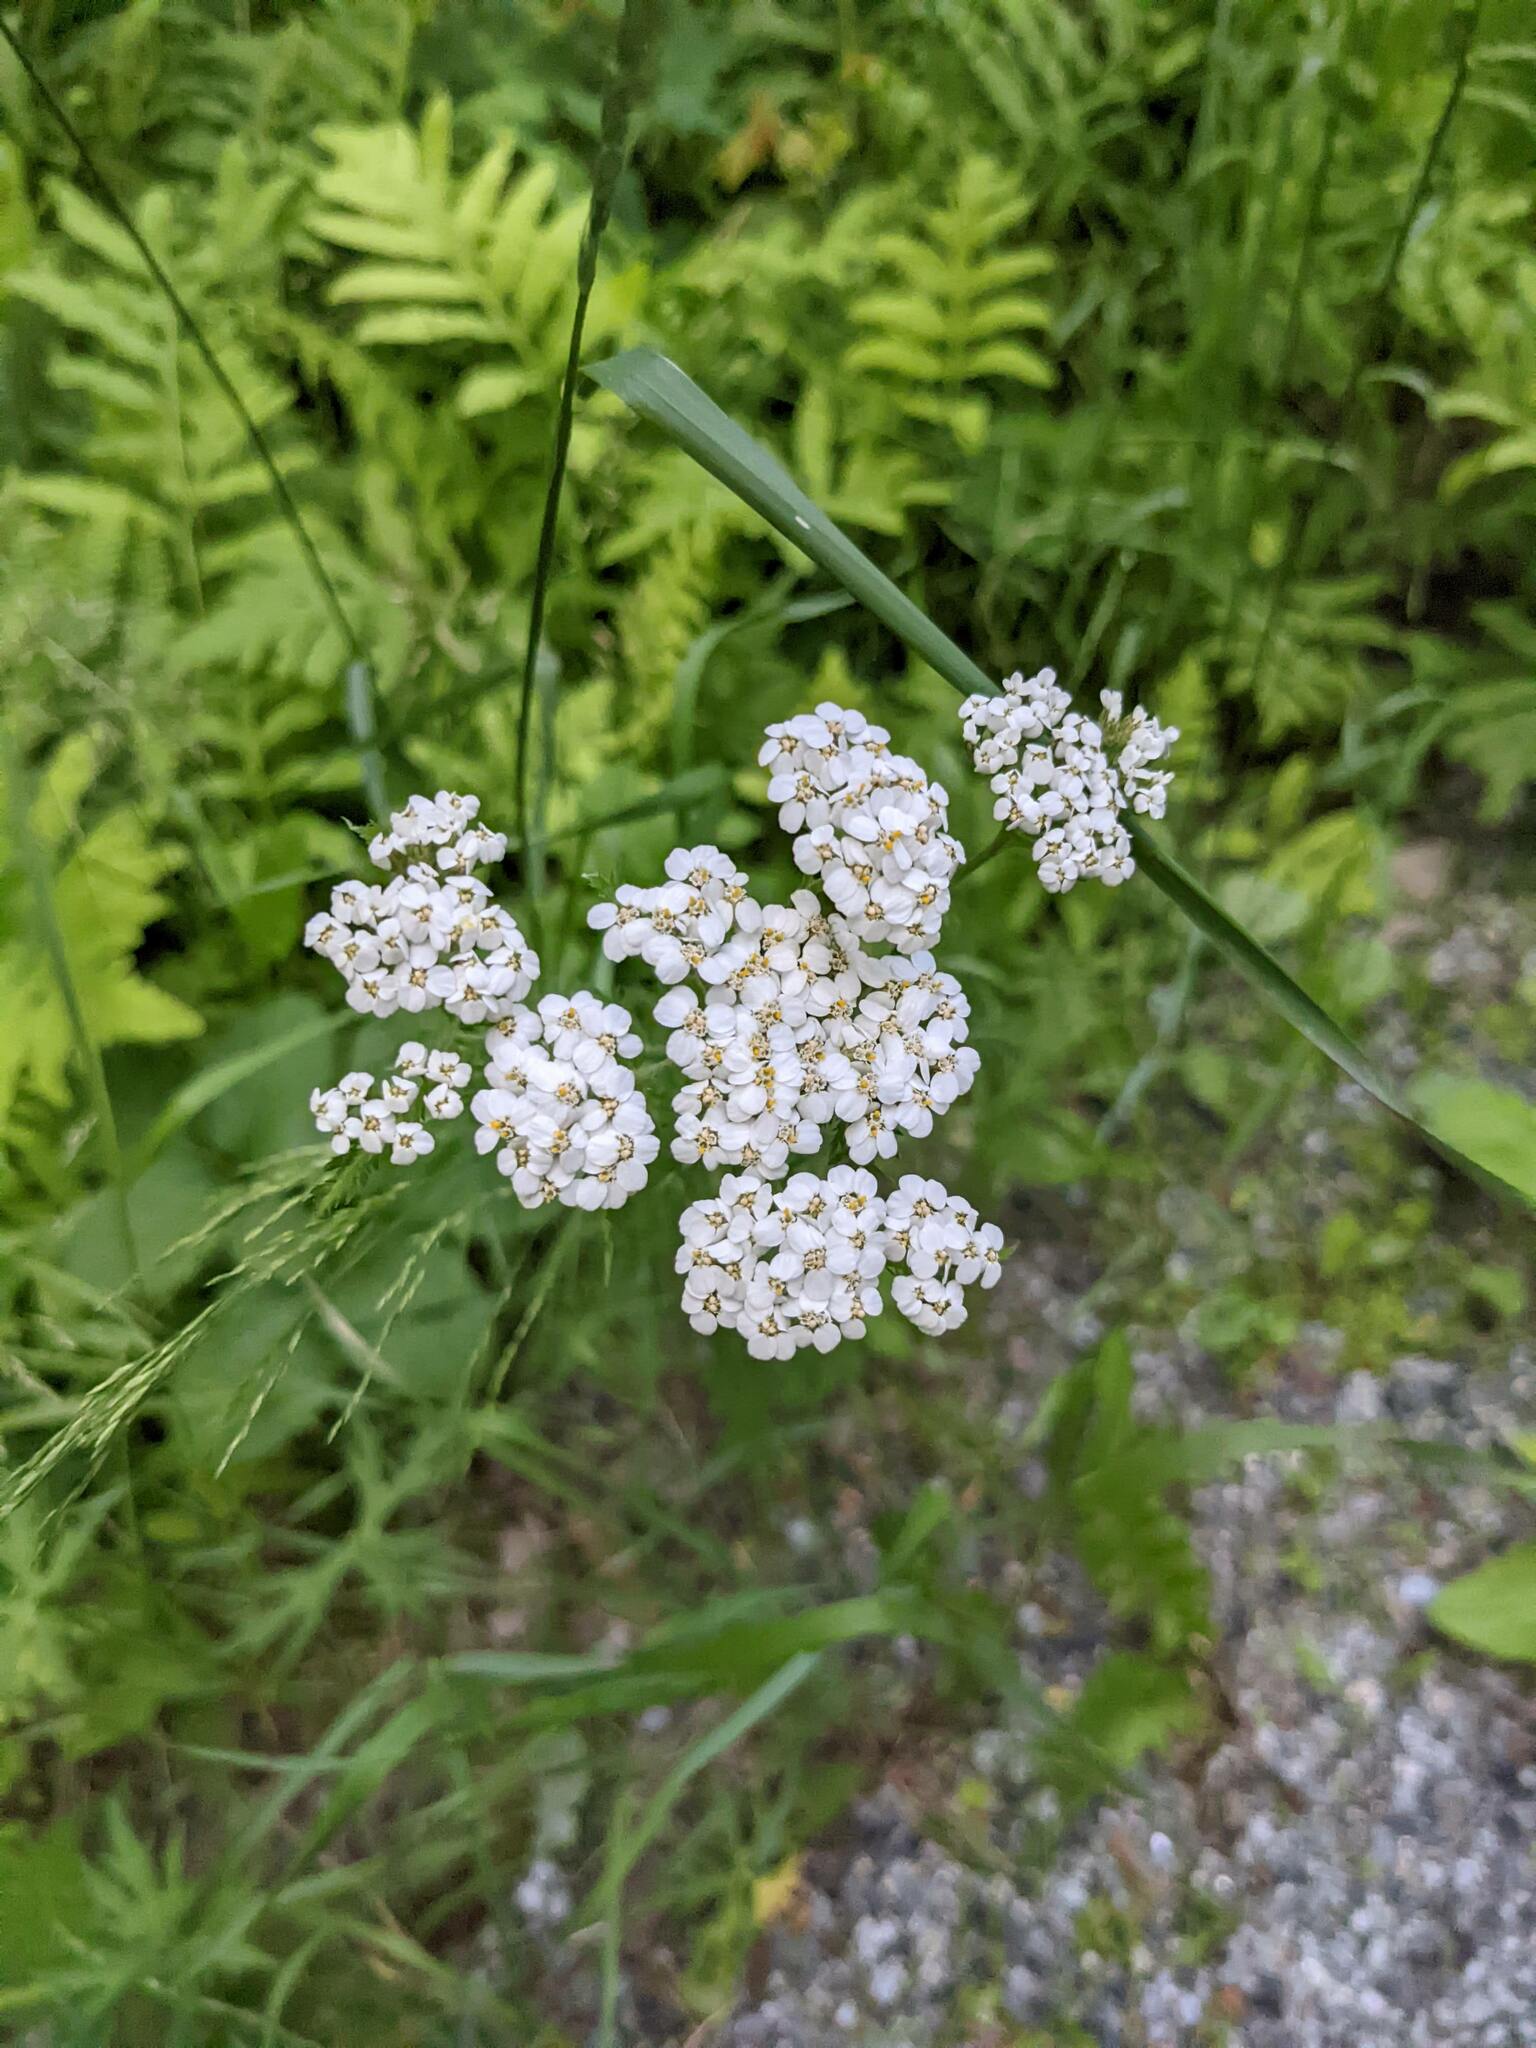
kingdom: Plantae
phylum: Tracheophyta
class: Magnoliopsida
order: Asterales
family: Asteraceae
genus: Achillea
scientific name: Achillea millefolium
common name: Yarrow
